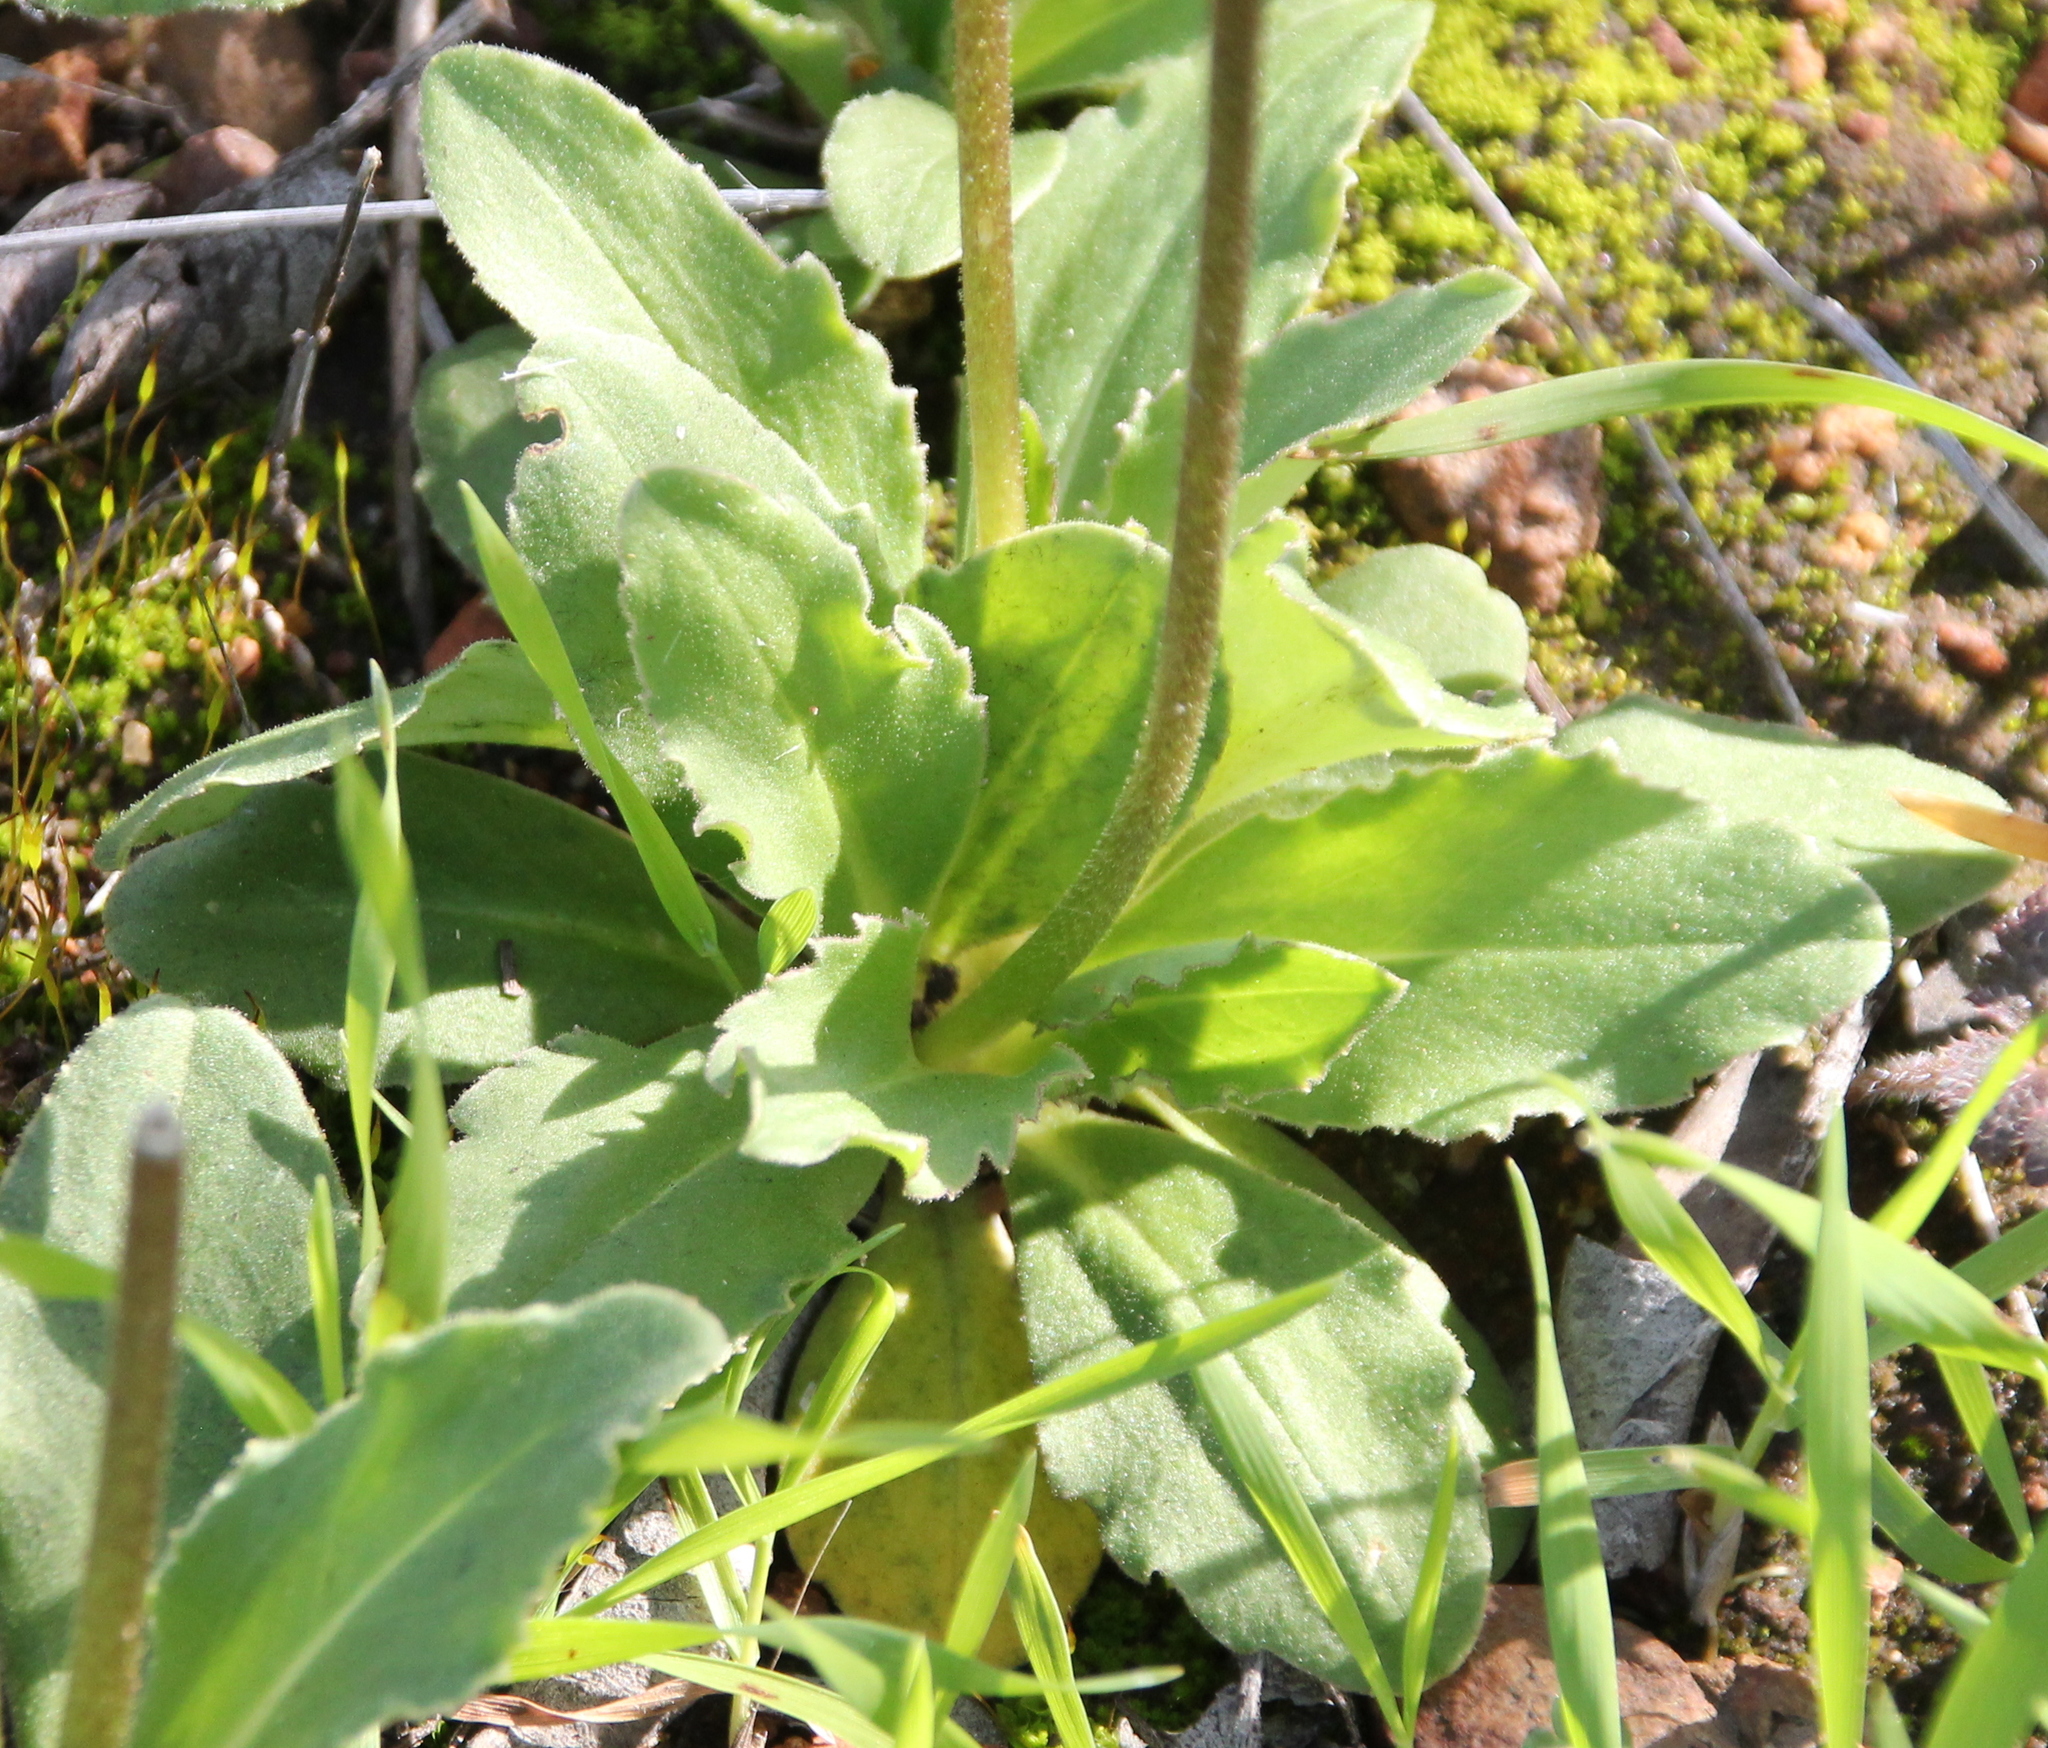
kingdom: Plantae
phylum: Tracheophyta
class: Magnoliopsida
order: Ericales
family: Primulaceae
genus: Dodecatheon
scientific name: Dodecatheon clevelandii
